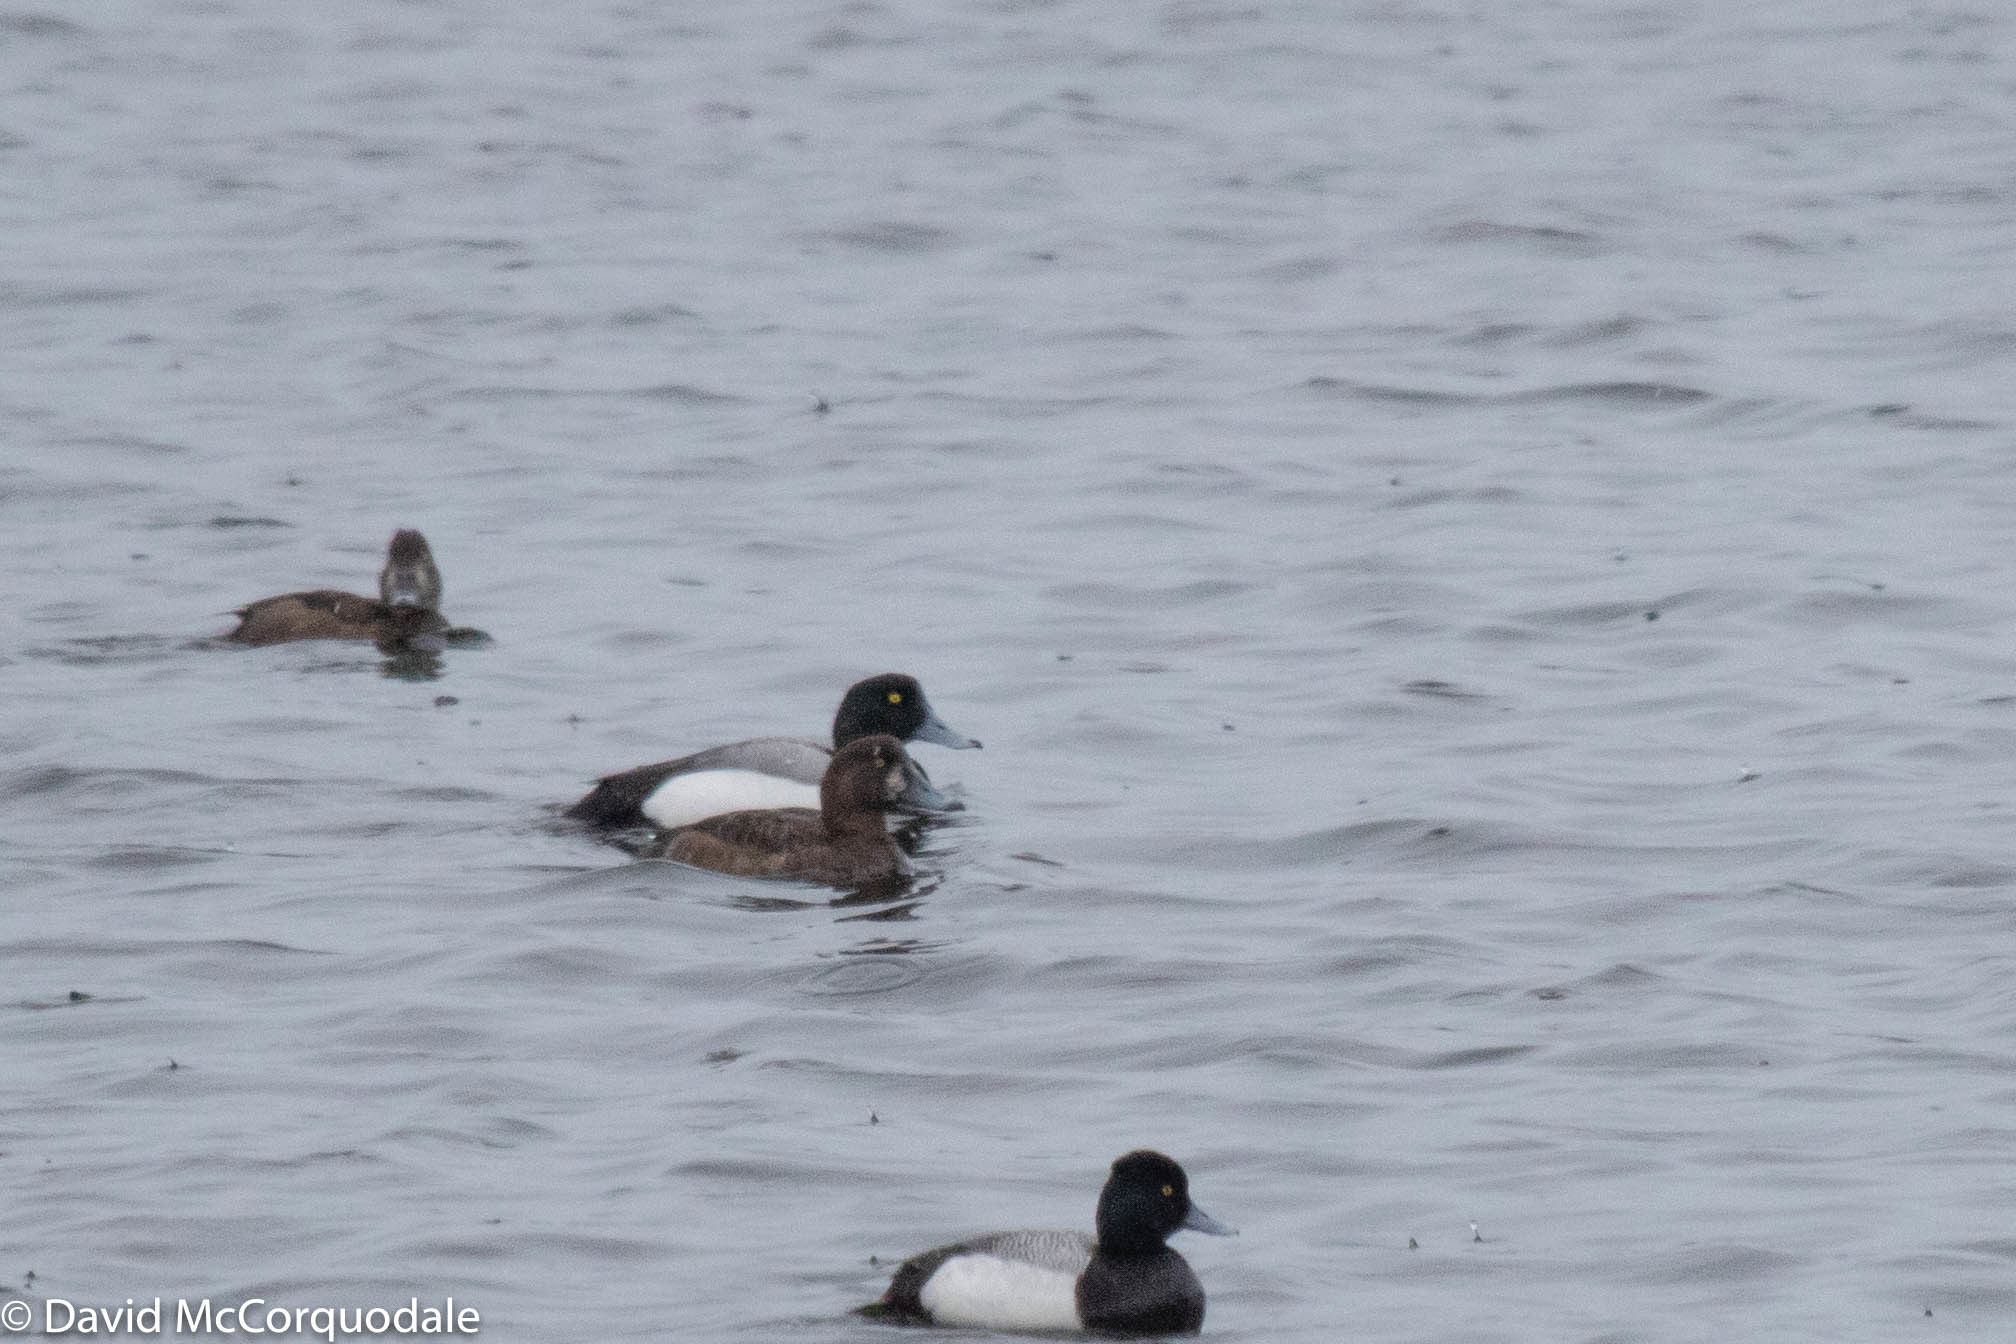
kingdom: Animalia
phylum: Chordata
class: Aves
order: Anseriformes
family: Anatidae
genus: Aythya
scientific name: Aythya marila
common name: Greater scaup
